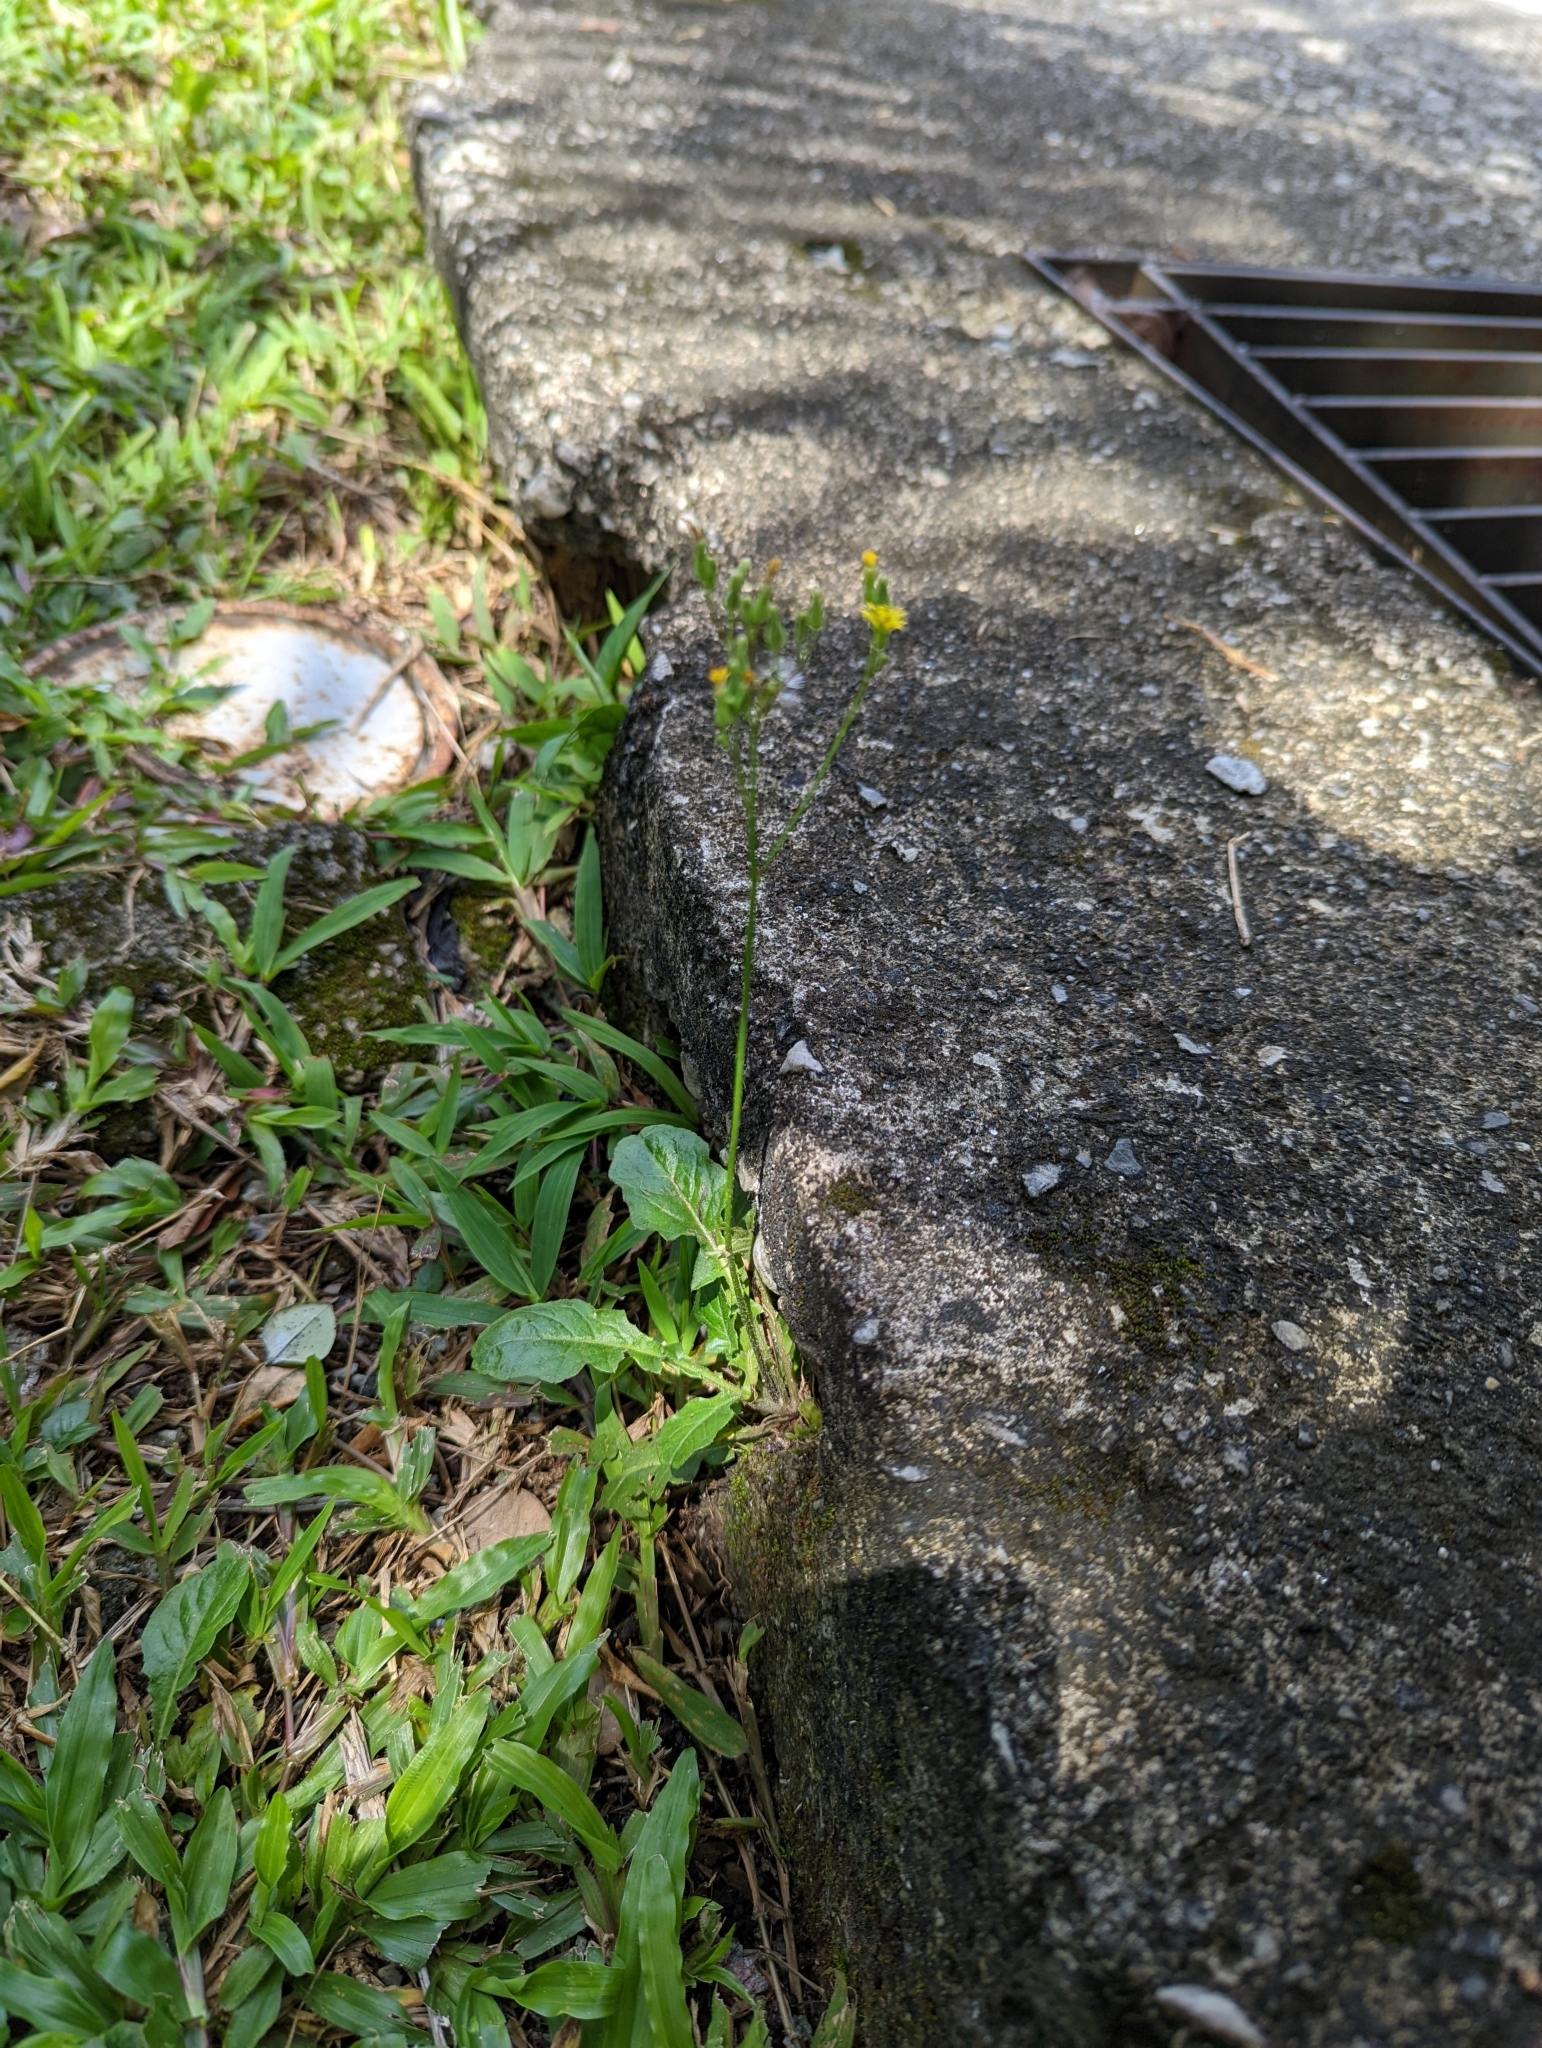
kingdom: Plantae
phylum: Tracheophyta
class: Magnoliopsida
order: Asterales
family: Asteraceae
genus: Youngia
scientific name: Youngia japonica
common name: Oriental false hawksbeard
